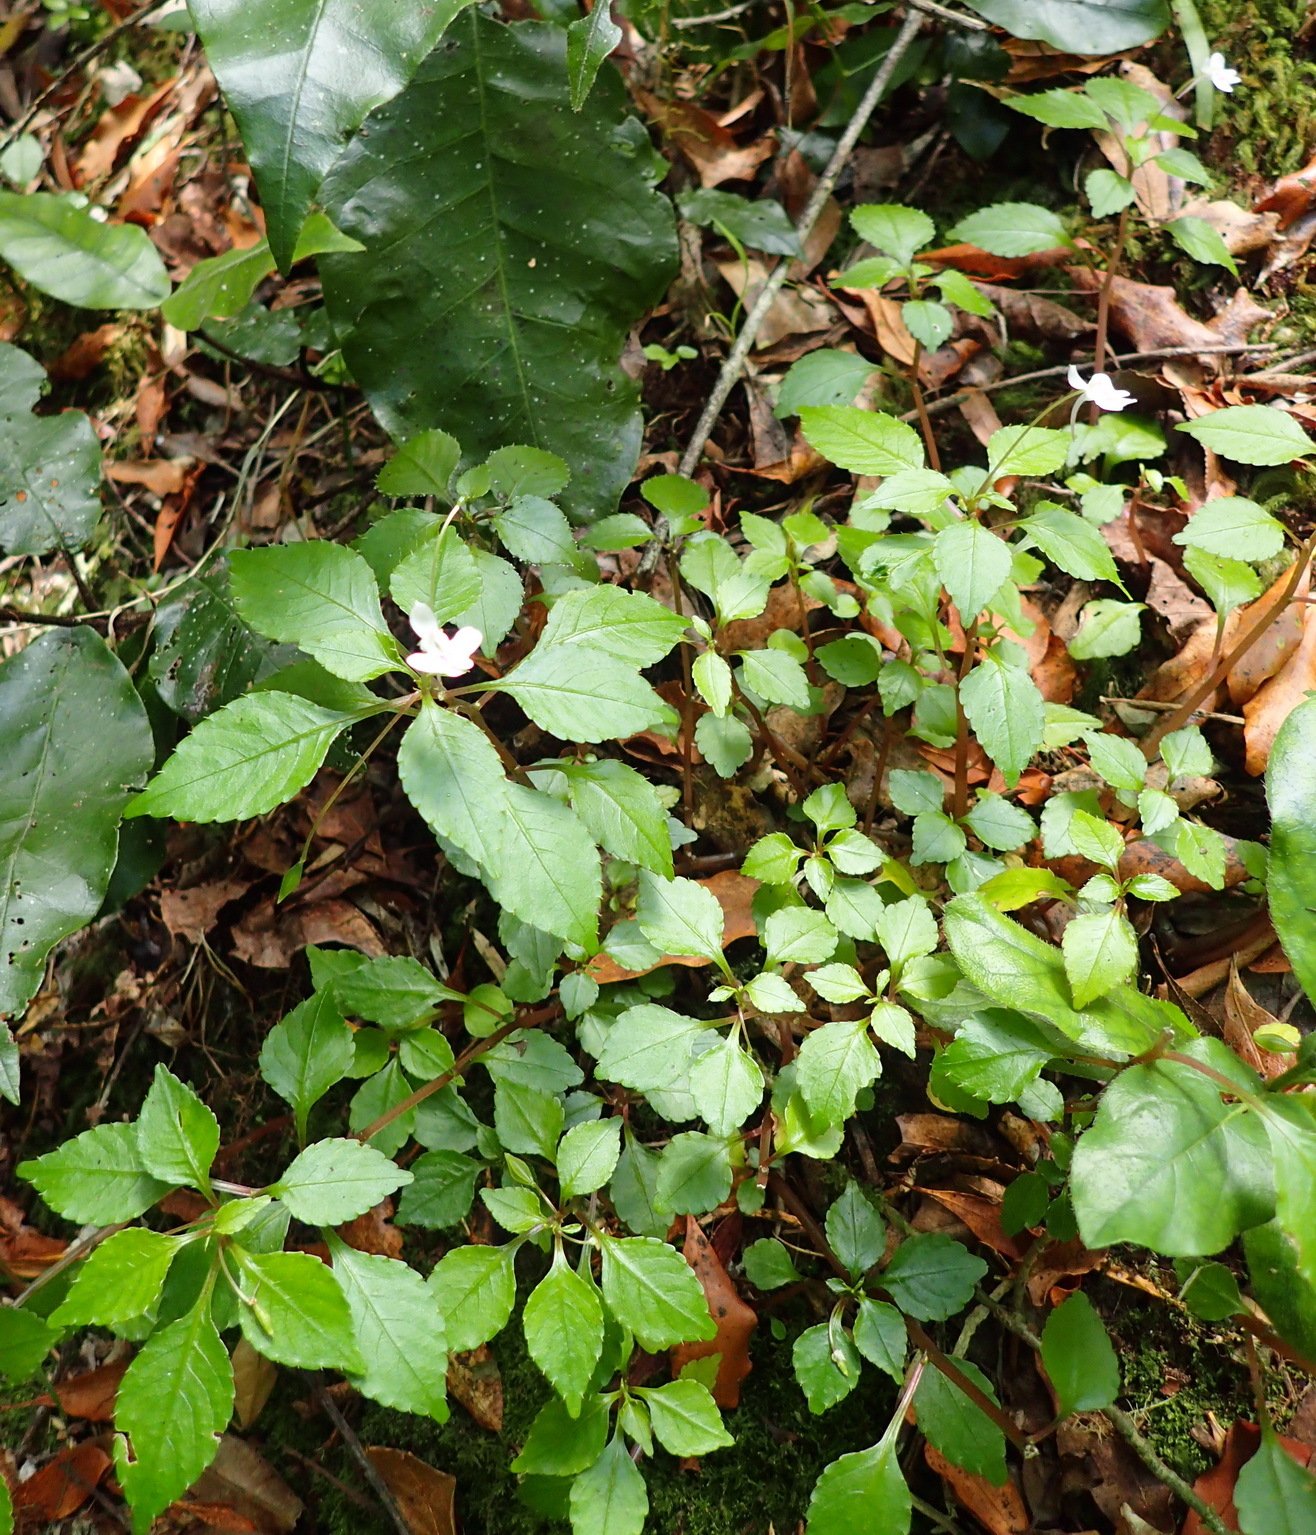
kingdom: Plantae
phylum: Tracheophyta
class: Magnoliopsida
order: Ericales
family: Balsaminaceae
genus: Impatiens
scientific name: Impatiens hochstetteri
